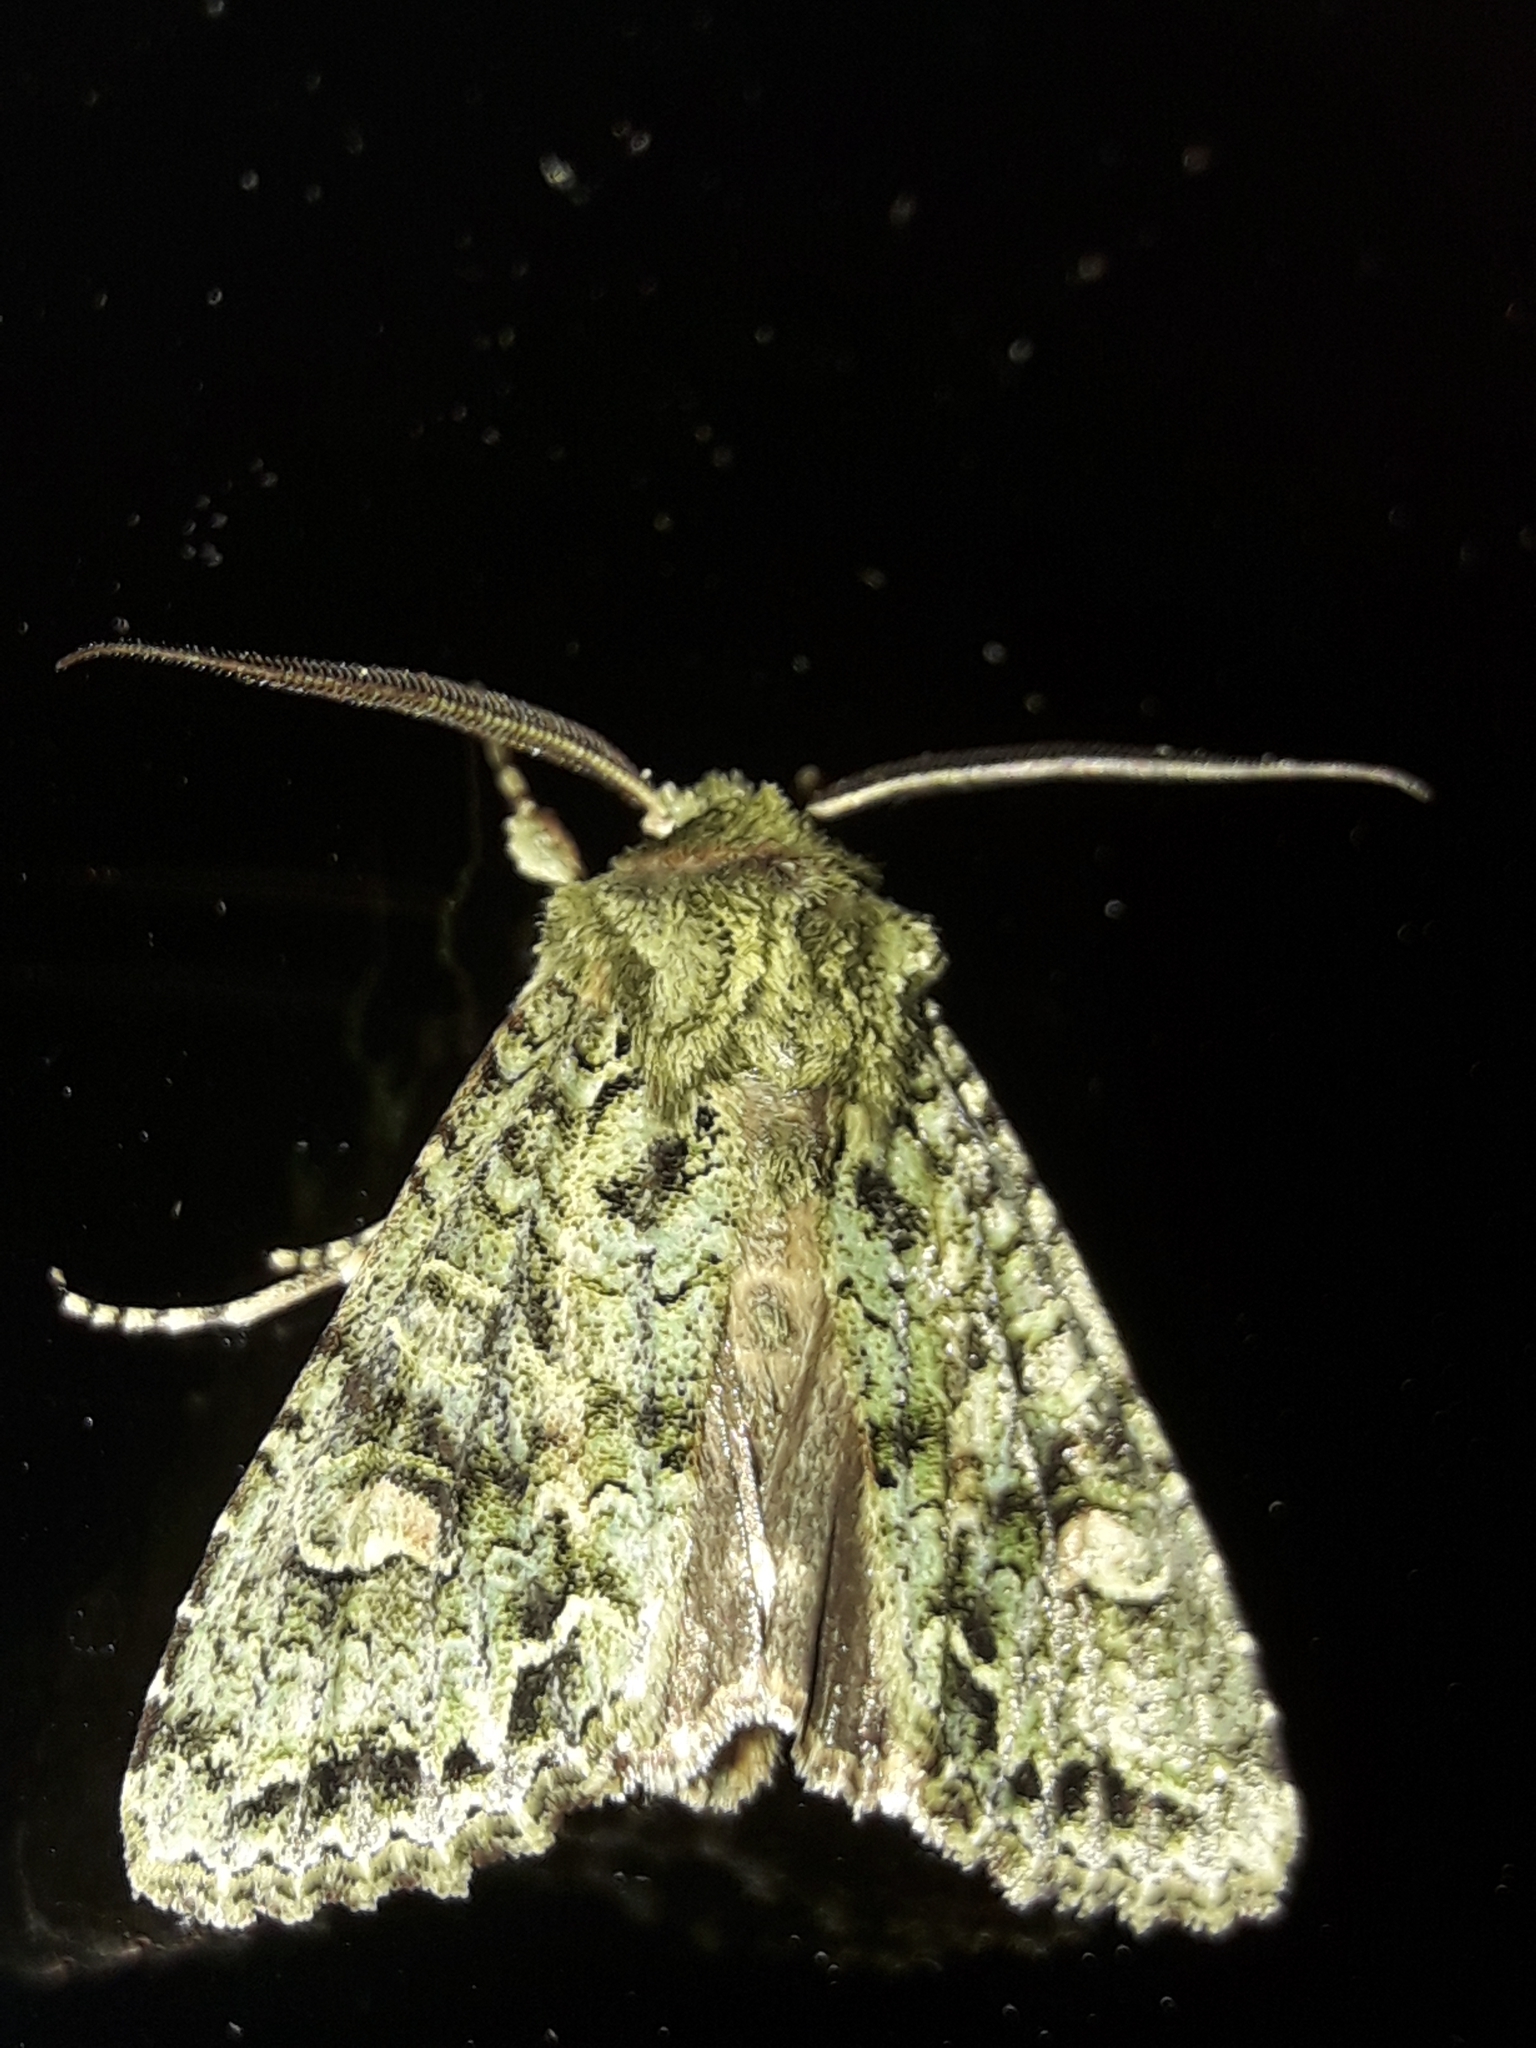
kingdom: Animalia
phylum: Arthropoda
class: Insecta
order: Lepidoptera
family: Noctuidae
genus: Ichneutica
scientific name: Ichneutica
